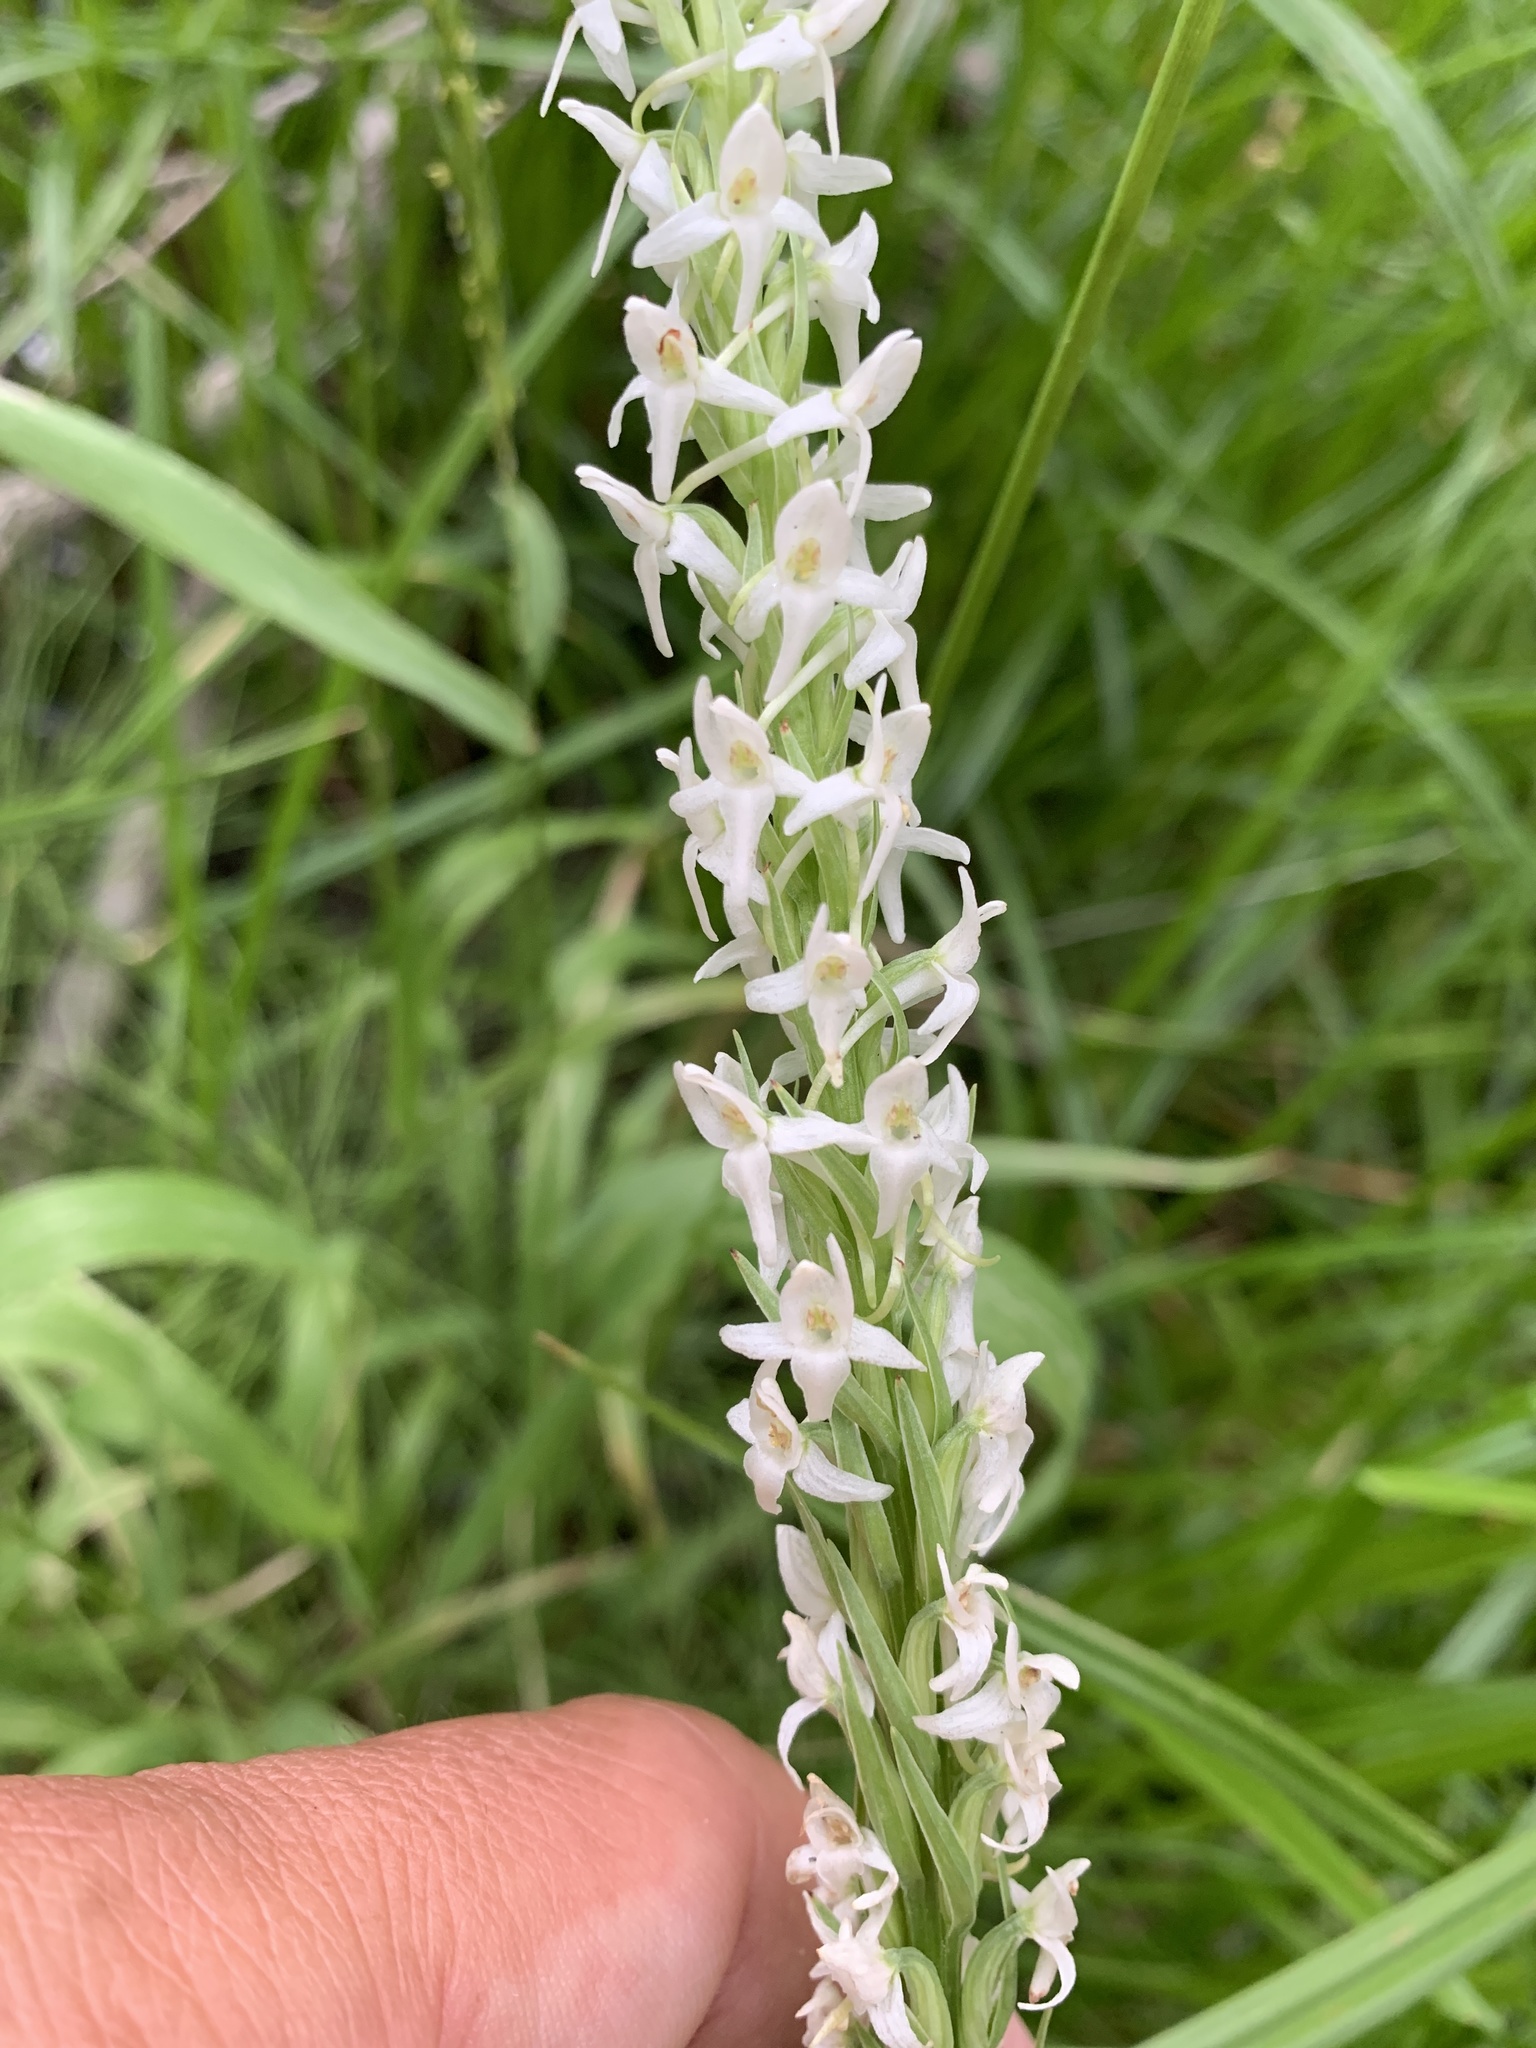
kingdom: Plantae
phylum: Tracheophyta
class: Liliopsida
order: Asparagales
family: Orchidaceae
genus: Platanthera
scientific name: Platanthera dilatata
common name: Bog candles
